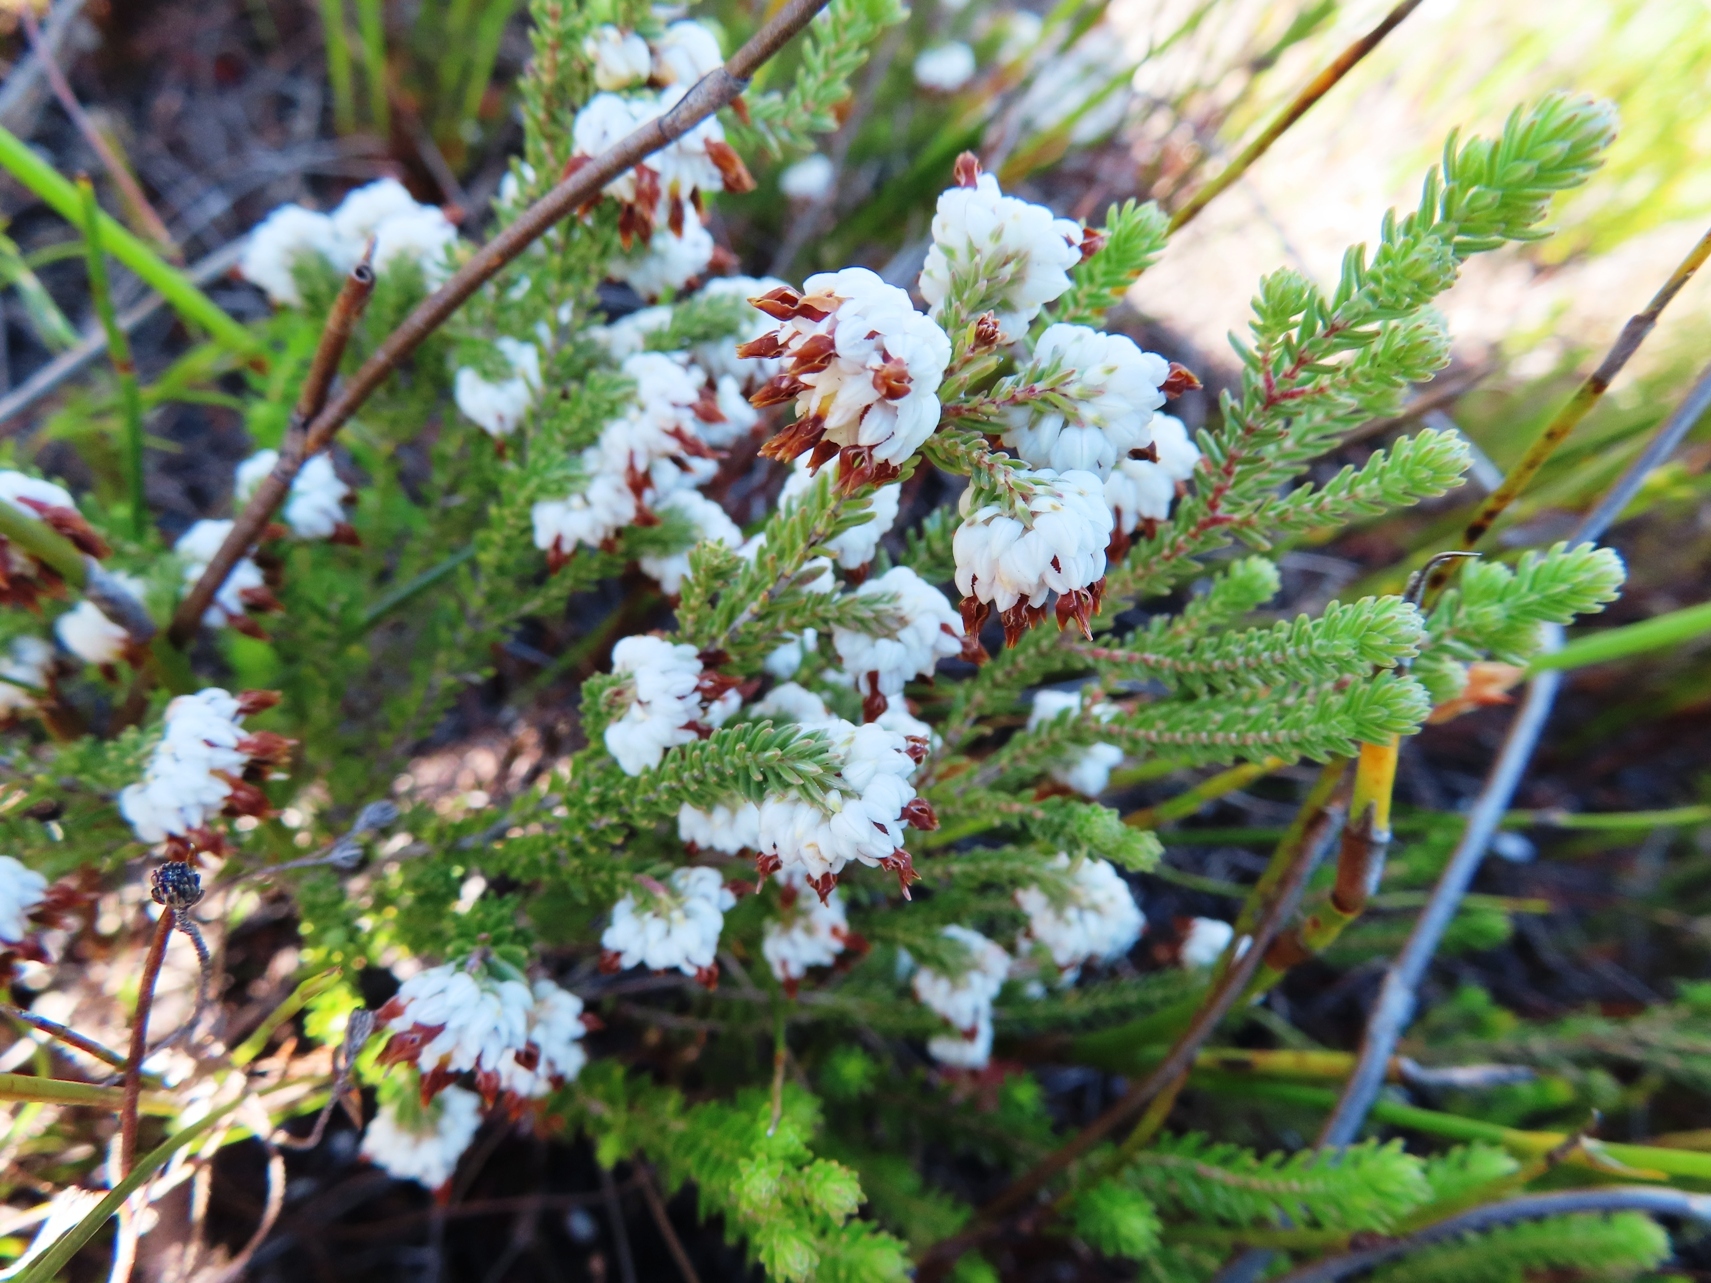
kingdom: Plantae
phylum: Tracheophyta
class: Magnoliopsida
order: Ericales
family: Ericaceae
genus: Erica
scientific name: Erica cumuliflora
